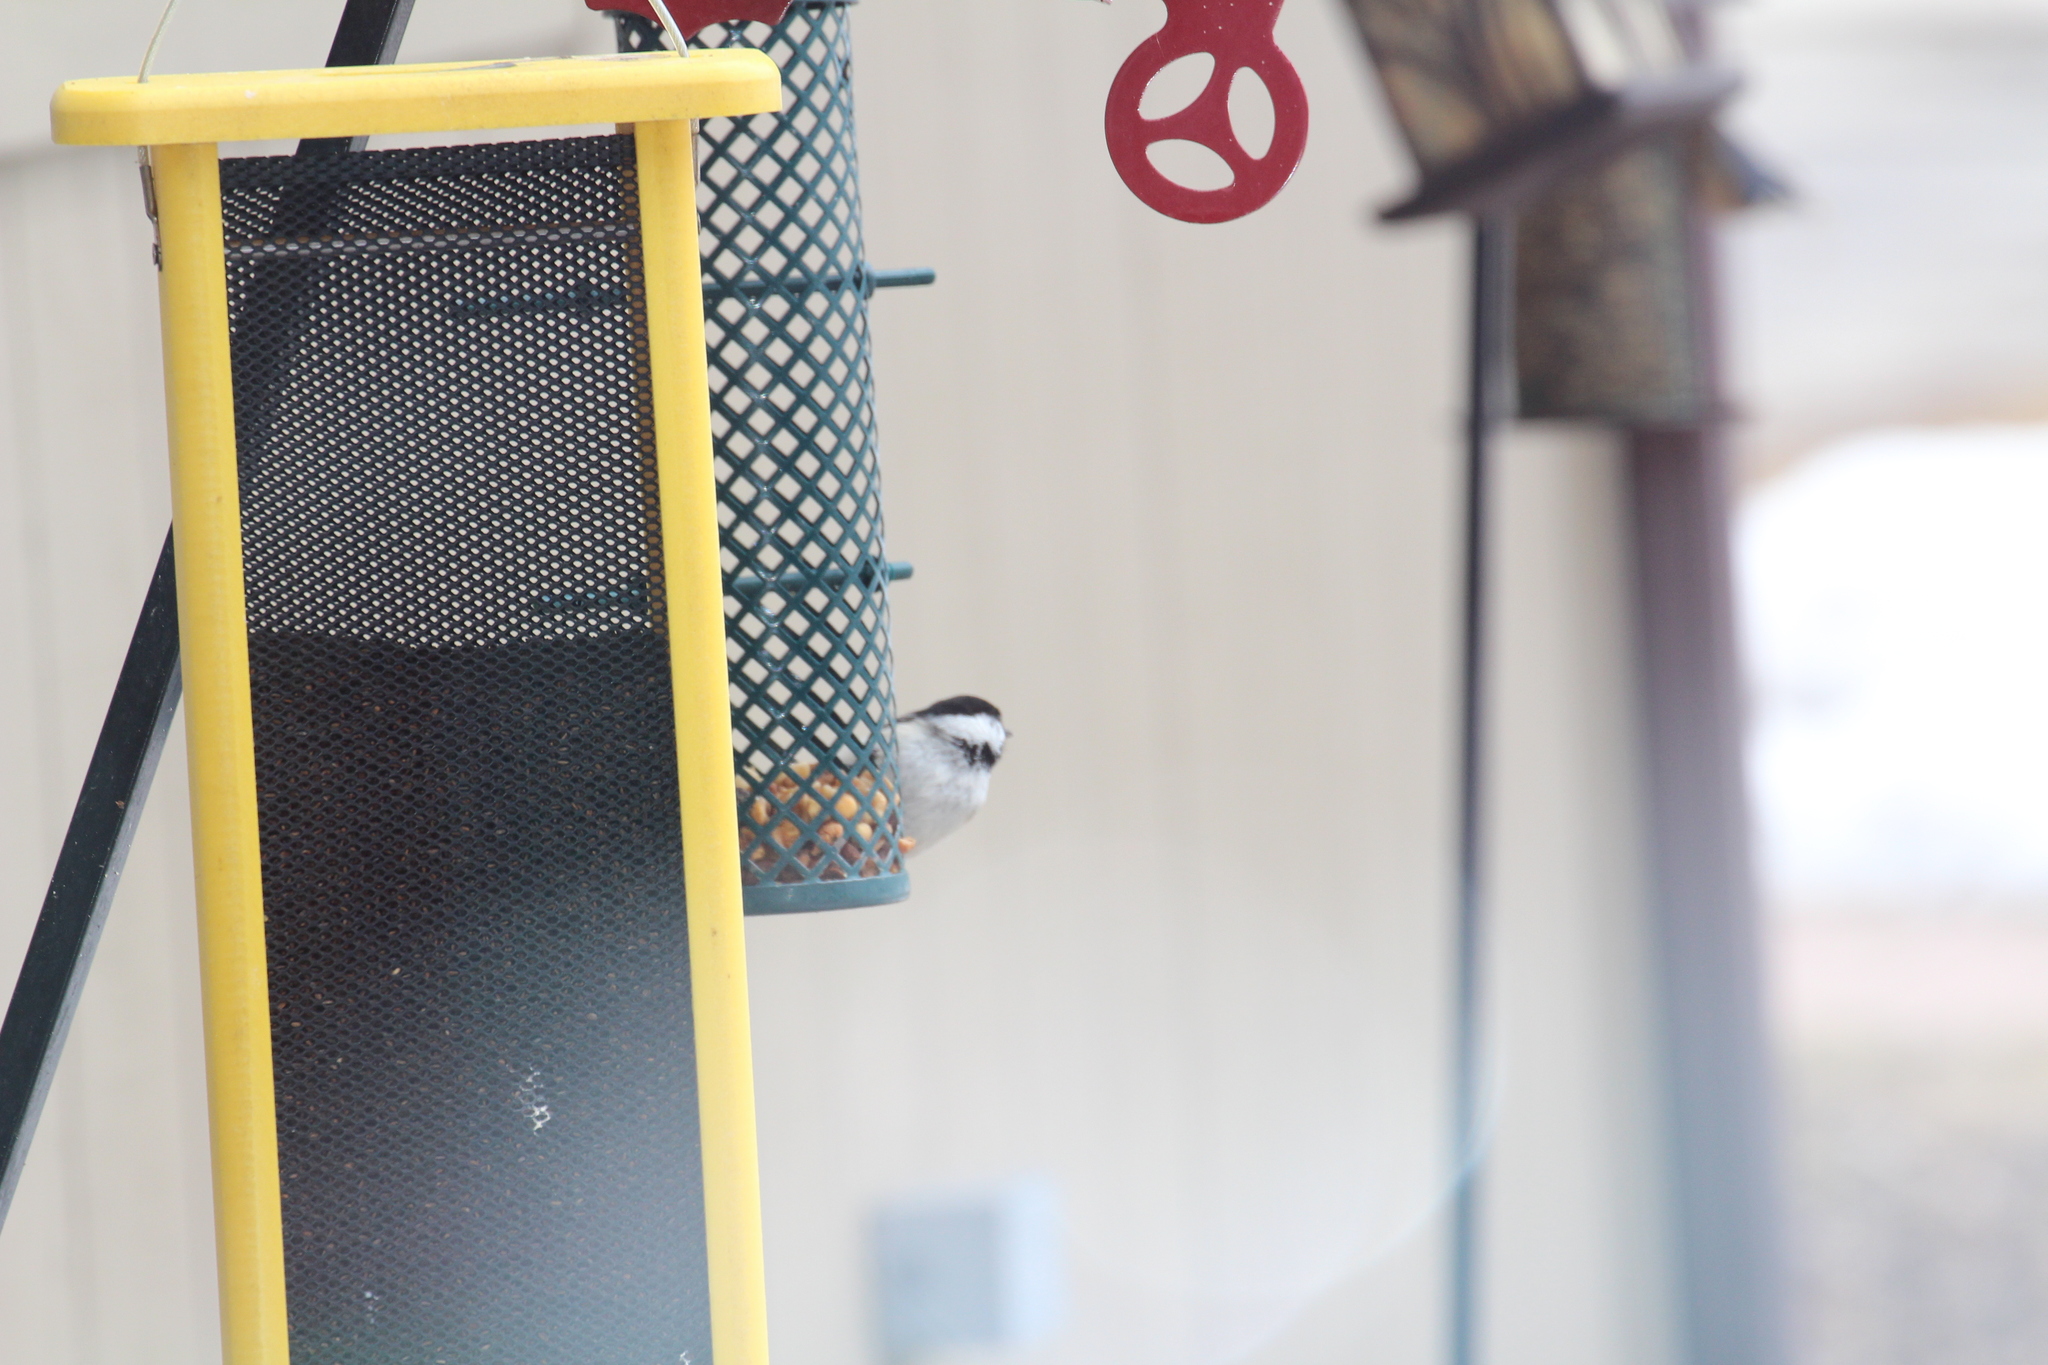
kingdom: Animalia
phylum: Chordata
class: Aves
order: Passeriformes
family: Paridae
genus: Poecile
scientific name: Poecile atricapillus
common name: Black-capped chickadee
